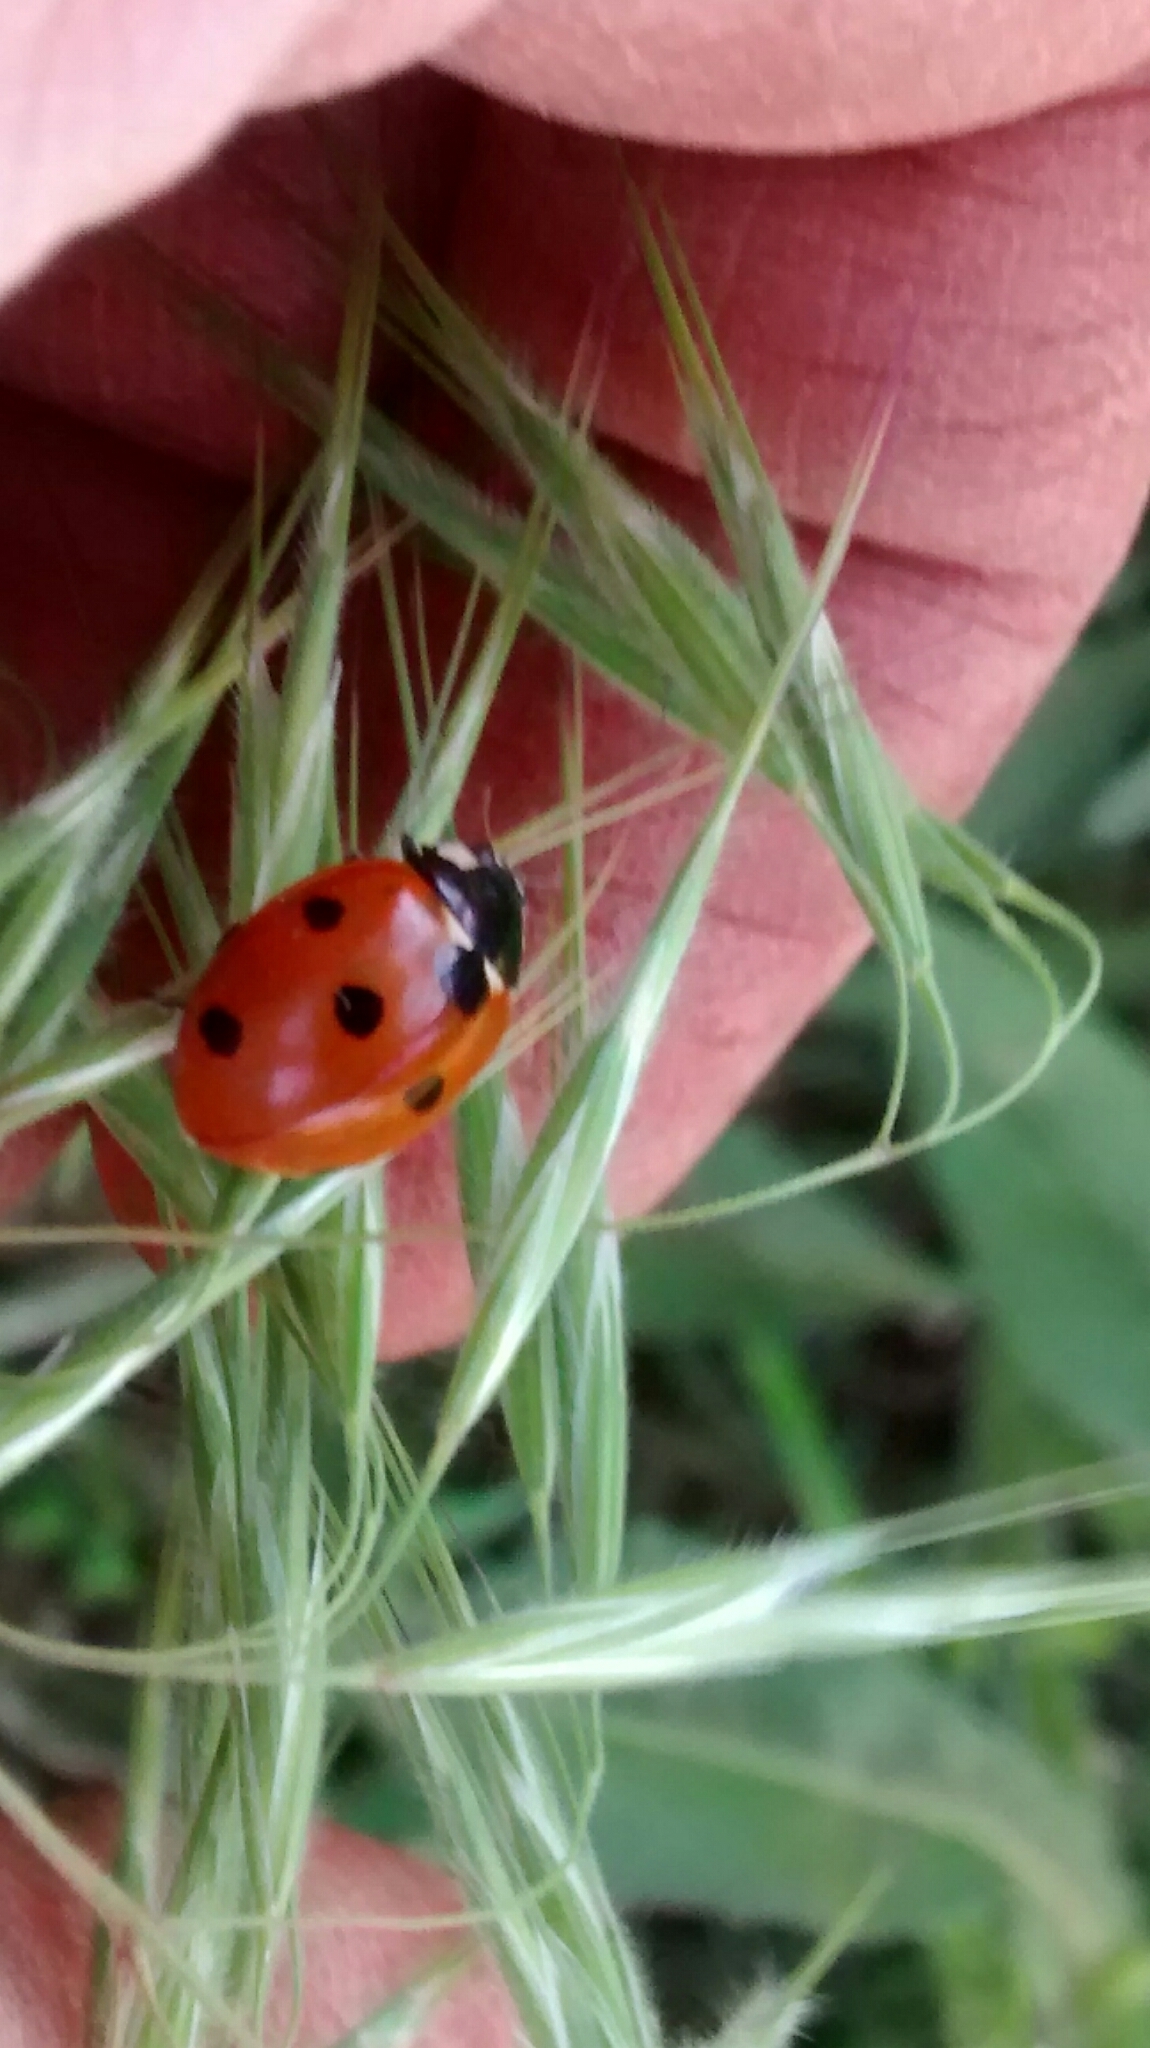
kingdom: Animalia
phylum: Arthropoda
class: Insecta
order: Coleoptera
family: Coccinellidae
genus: Coccinella
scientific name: Coccinella septempunctata
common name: Sevenspotted lady beetle
